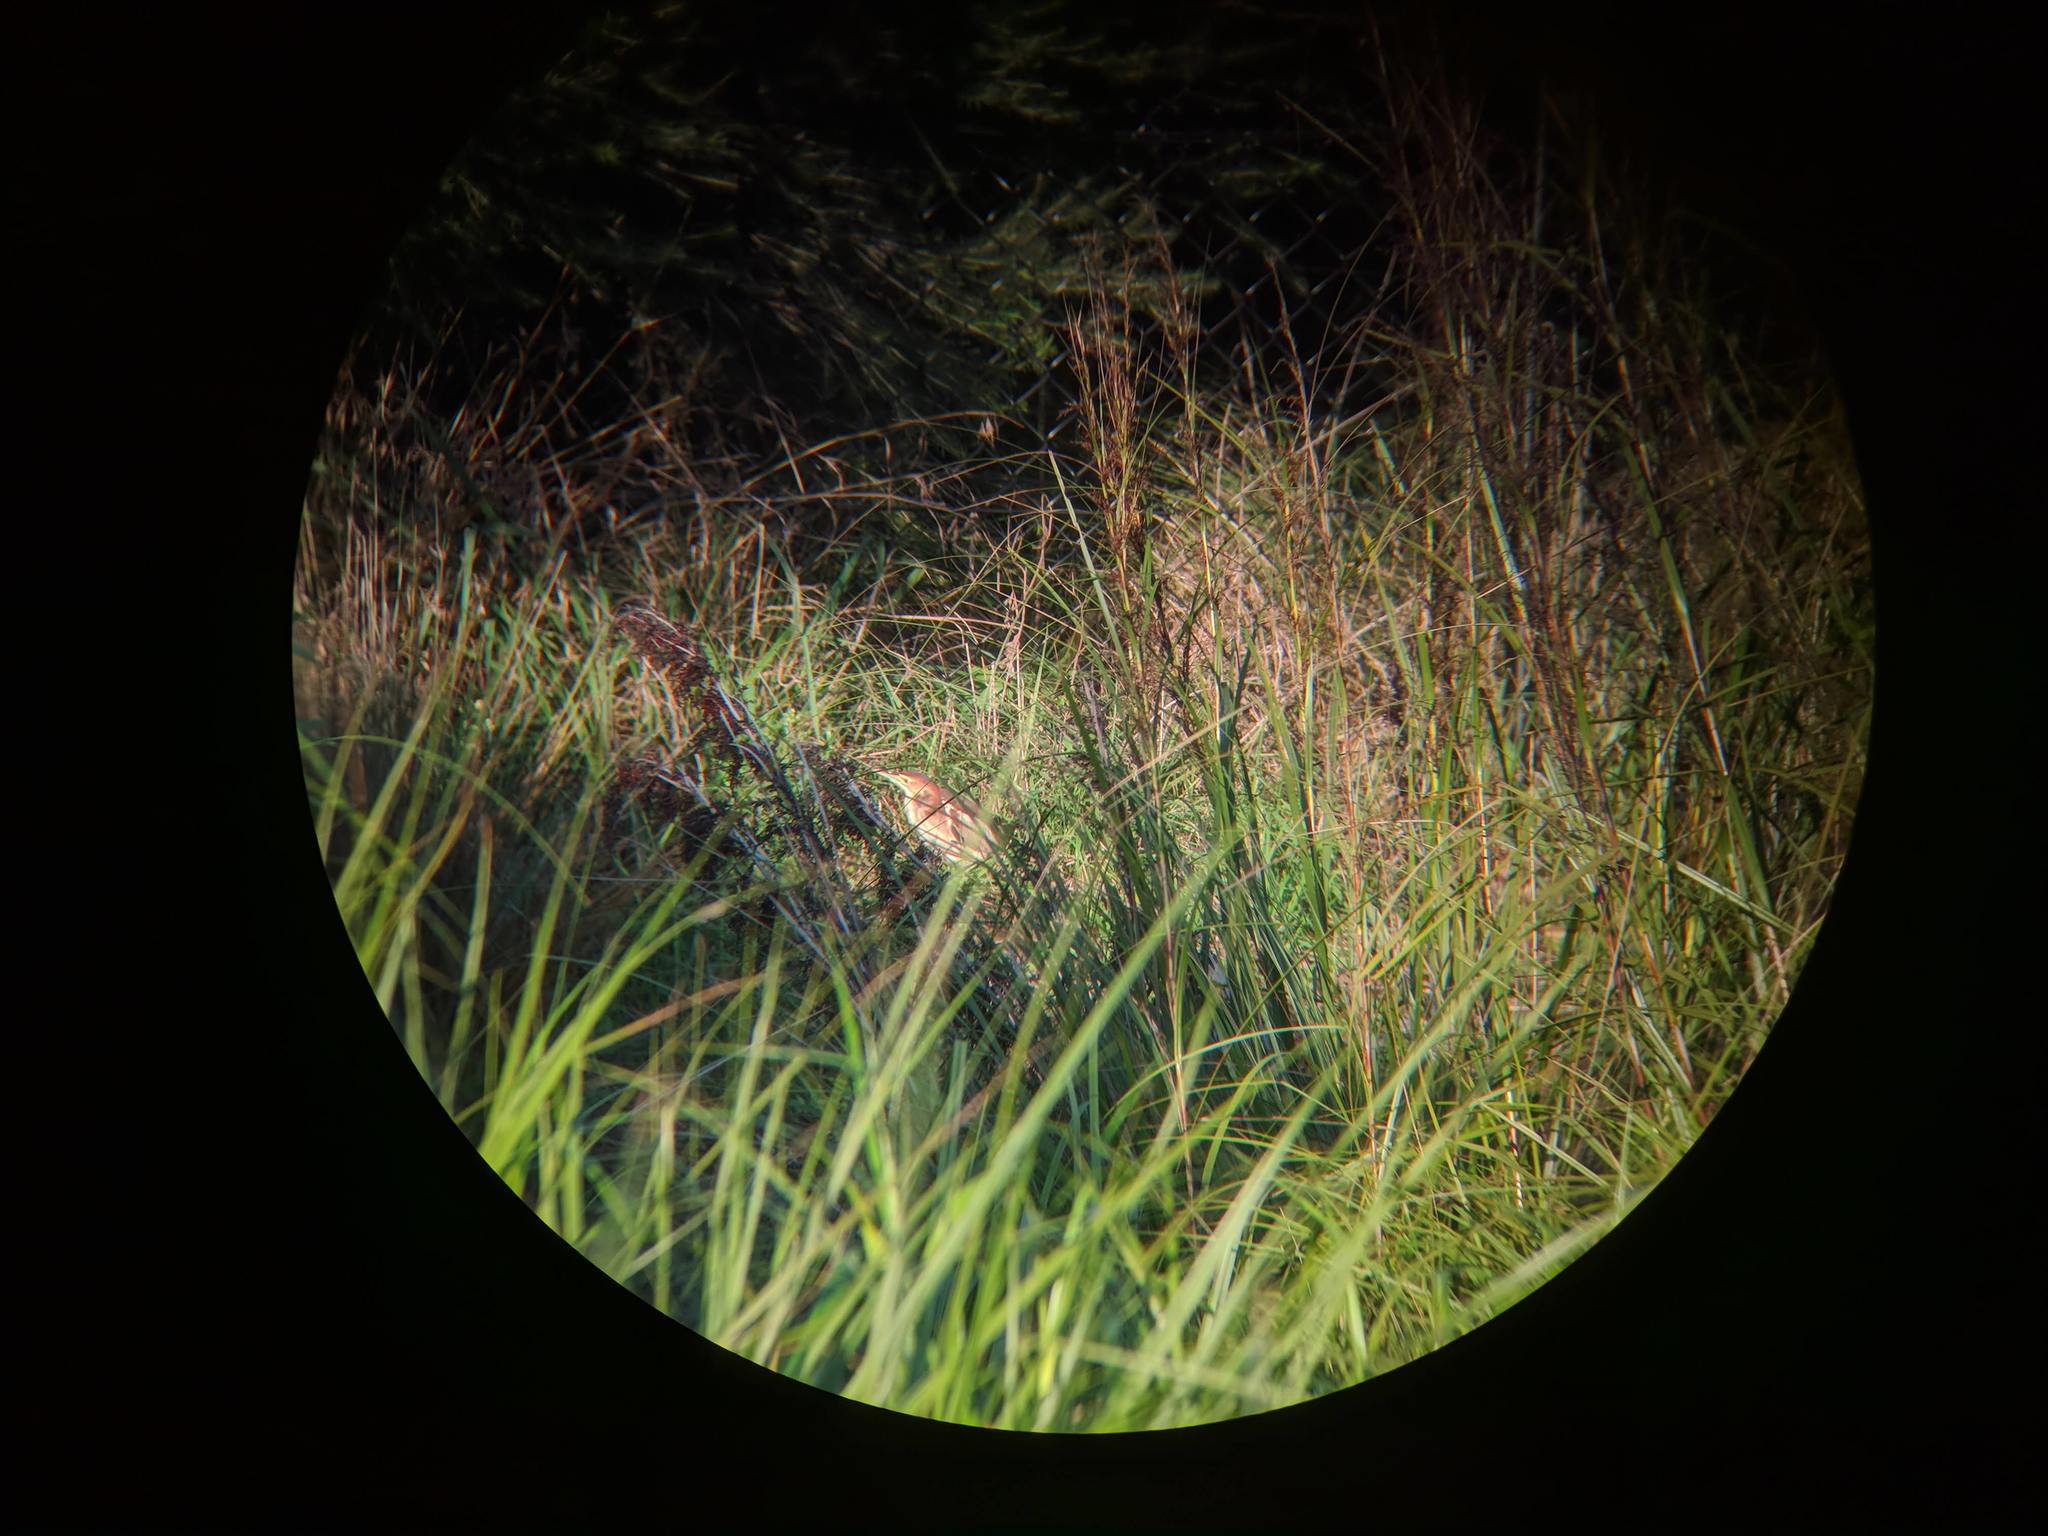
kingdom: Animalia
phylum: Chordata
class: Aves
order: Pelecaniformes
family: Ardeidae
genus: Ixobrychus
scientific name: Ixobrychus dubius
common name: Black-backed bittern
